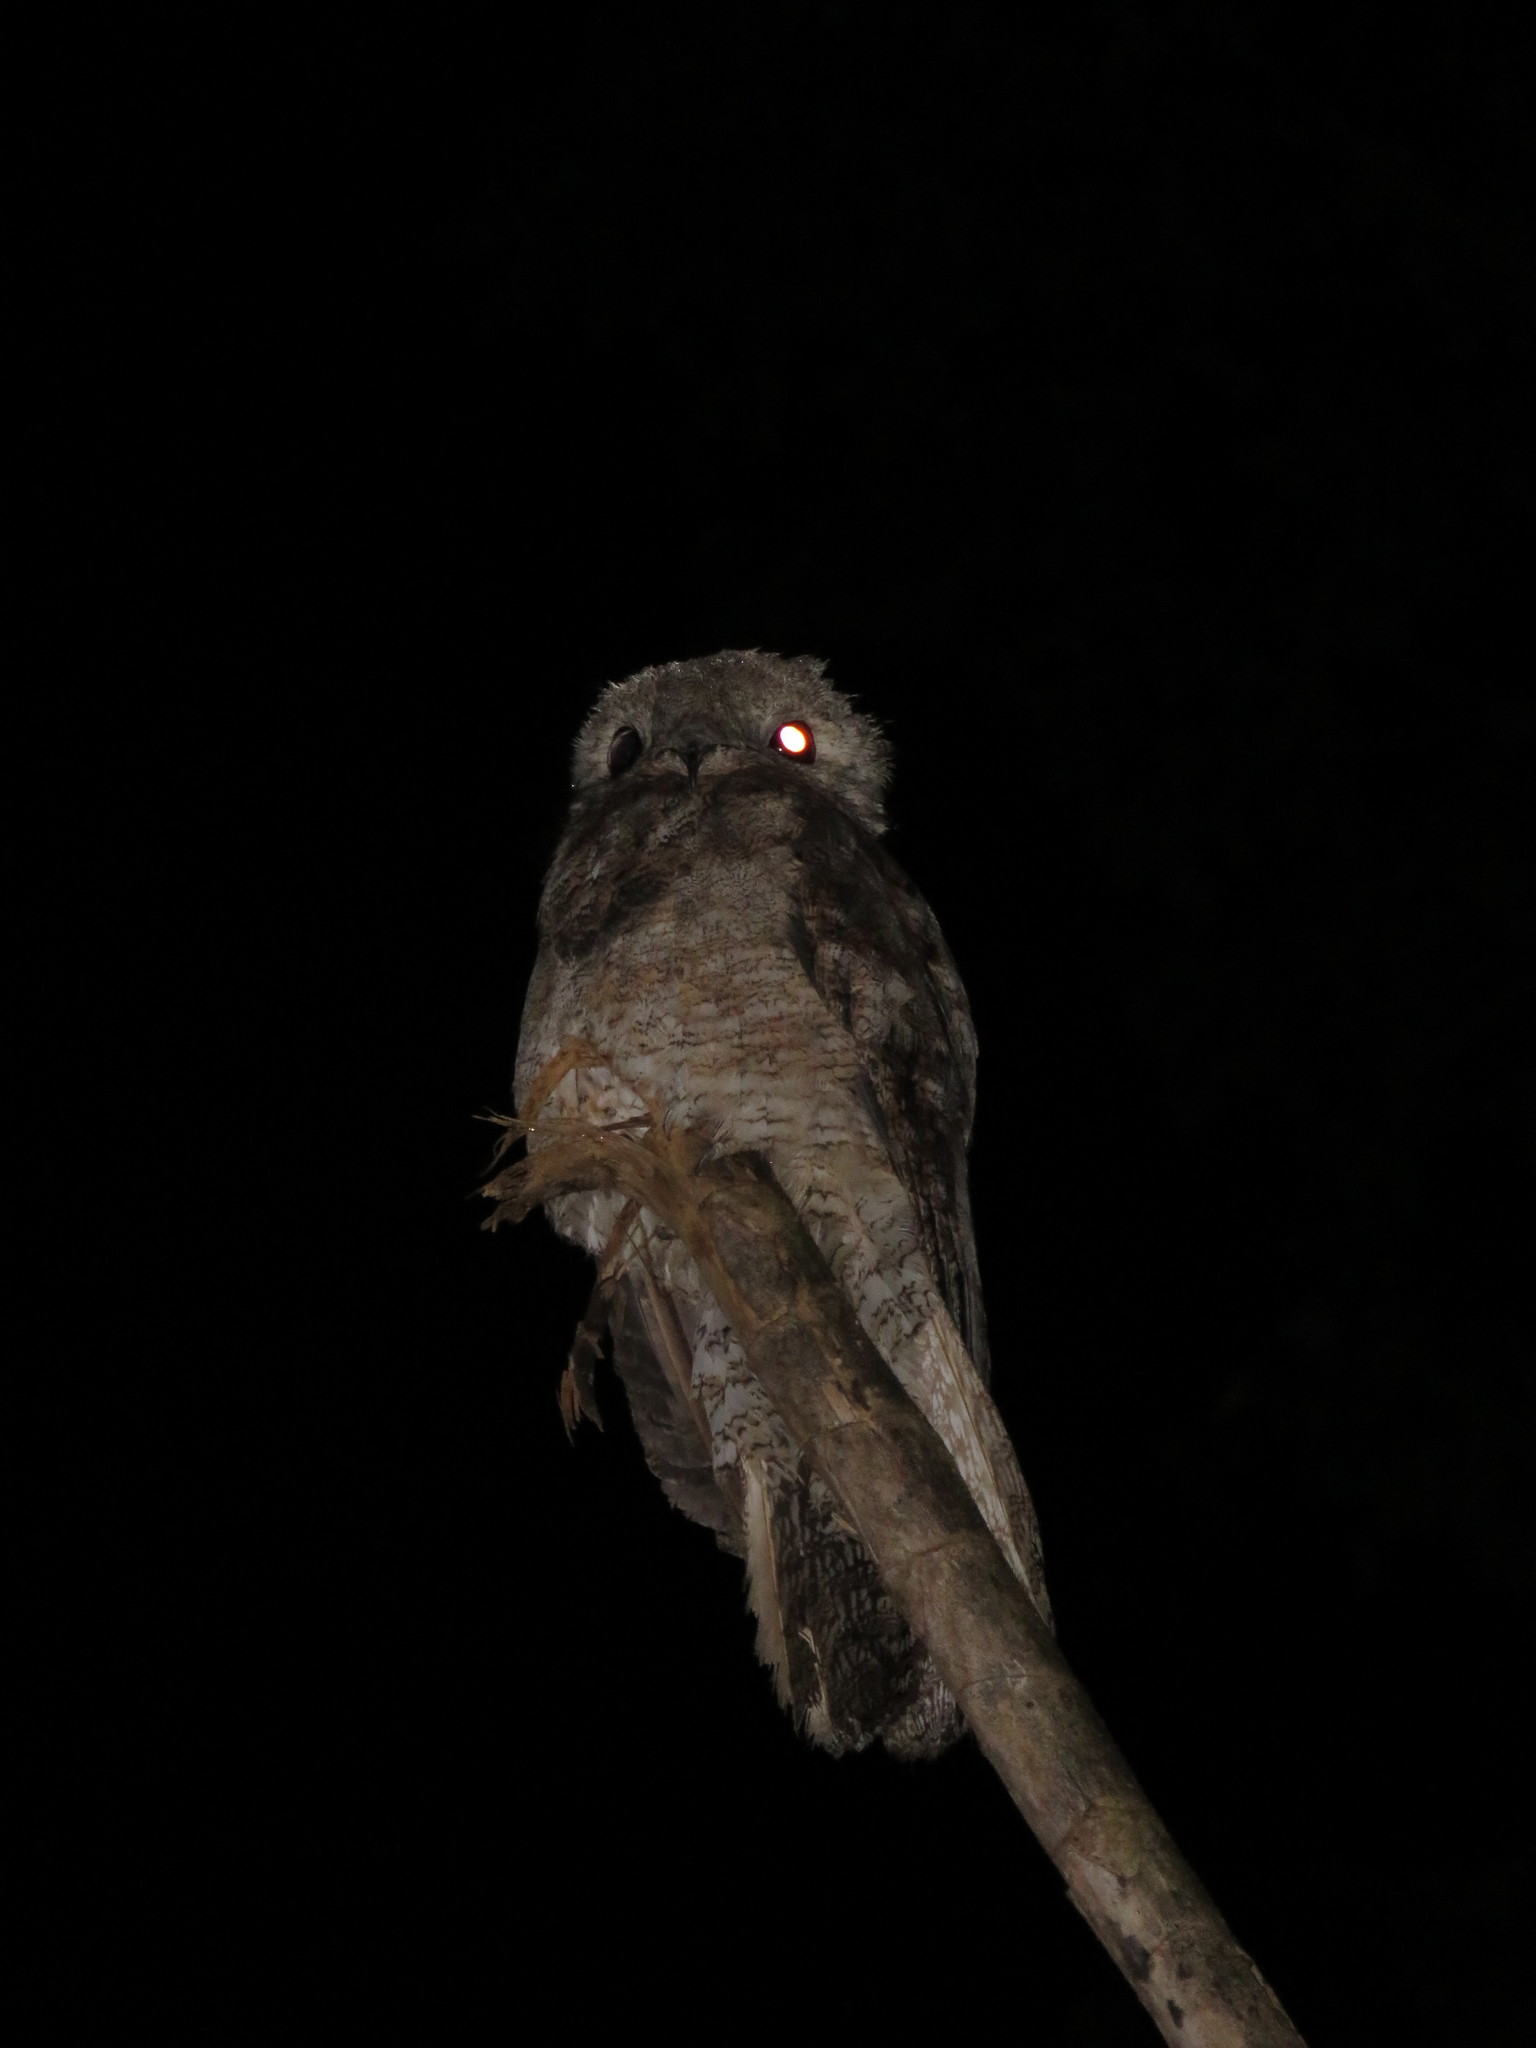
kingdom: Animalia
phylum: Chordata
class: Aves
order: Nyctibiiformes
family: Nyctibiidae
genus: Nyctibius
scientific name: Nyctibius grandis
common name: Great potoo
